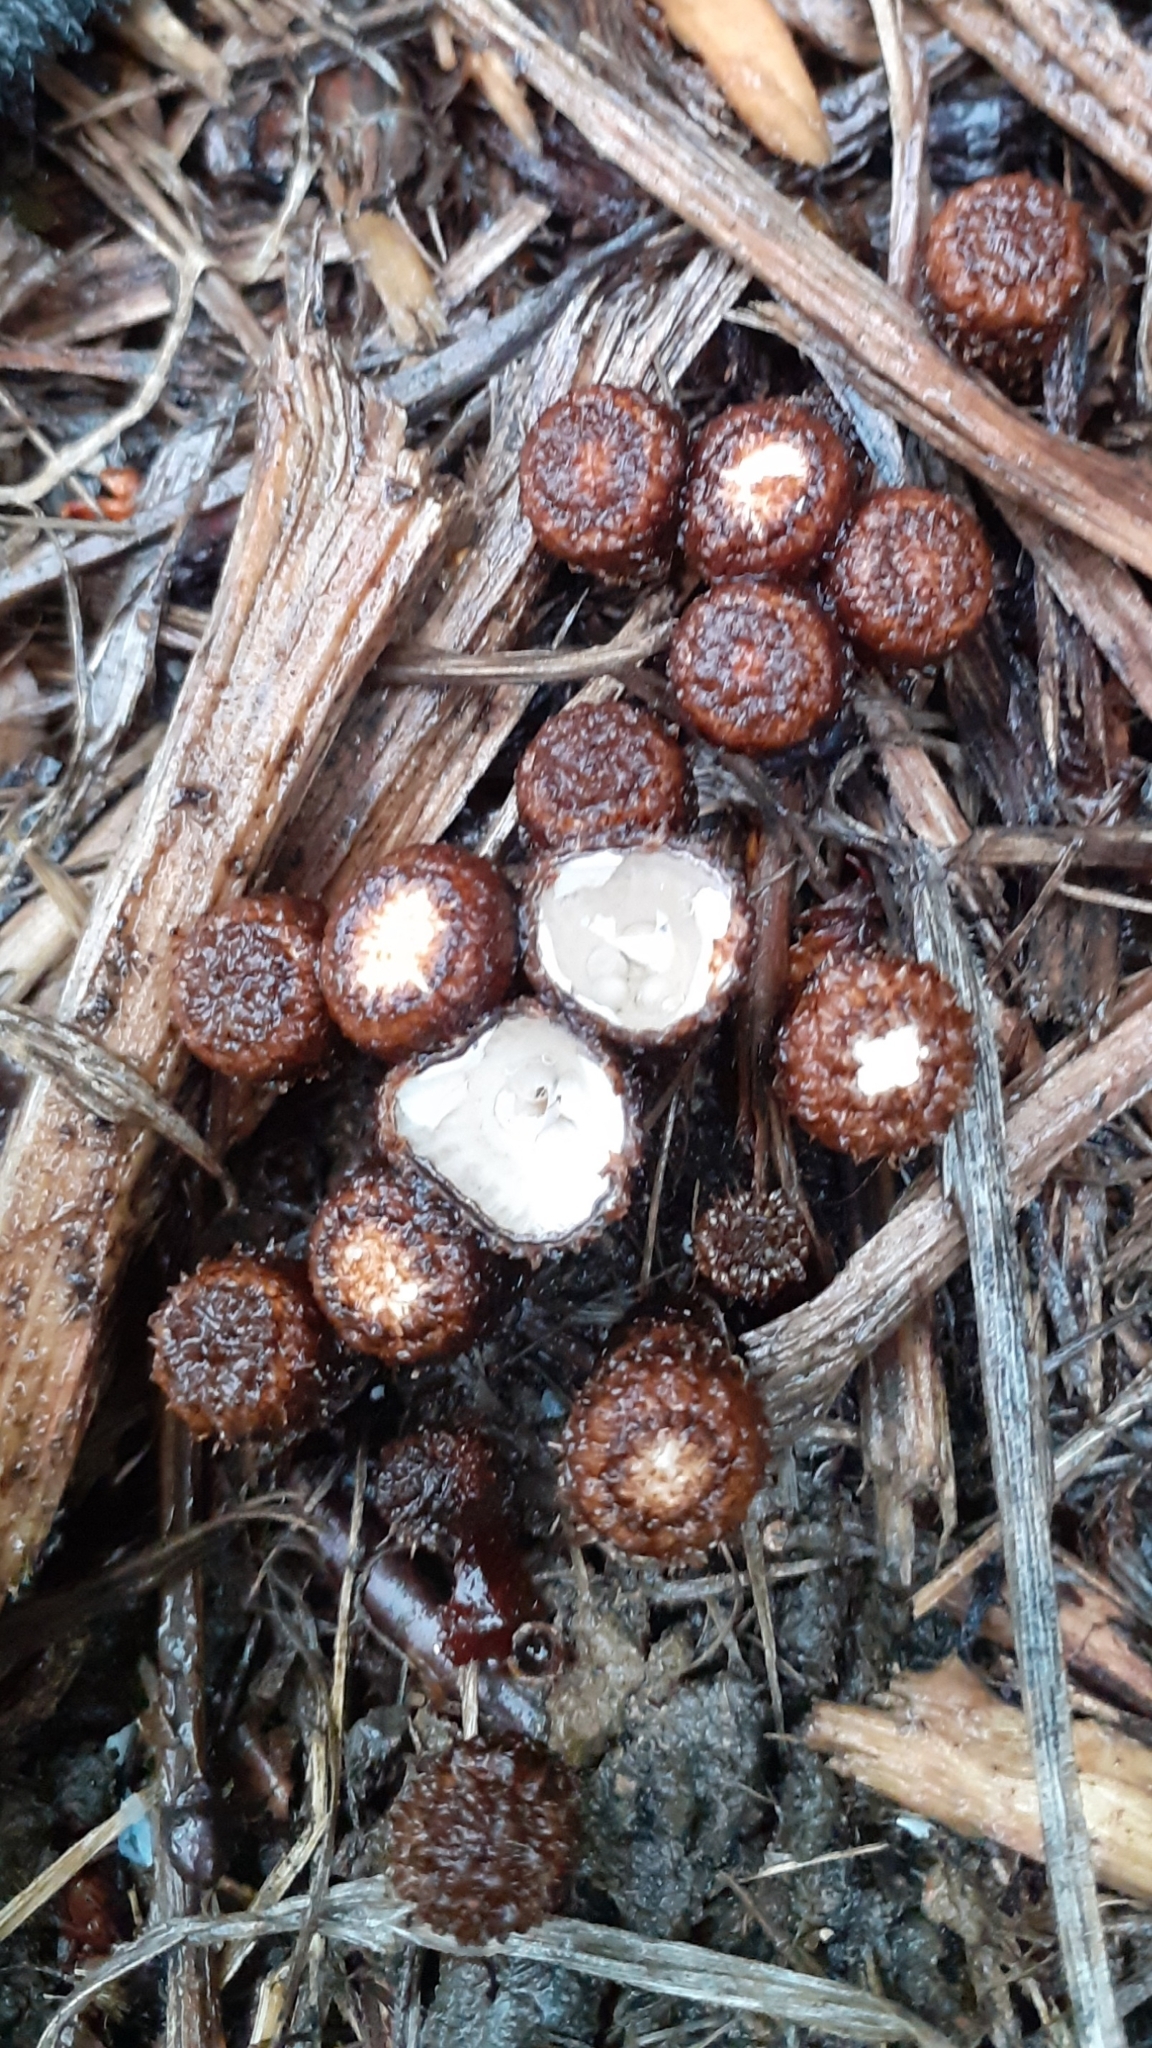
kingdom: Fungi
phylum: Basidiomycota
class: Agaricomycetes
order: Agaricales
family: Agaricaceae
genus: Cyathus
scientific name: Cyathus striatus
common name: Fluted bird's nest
